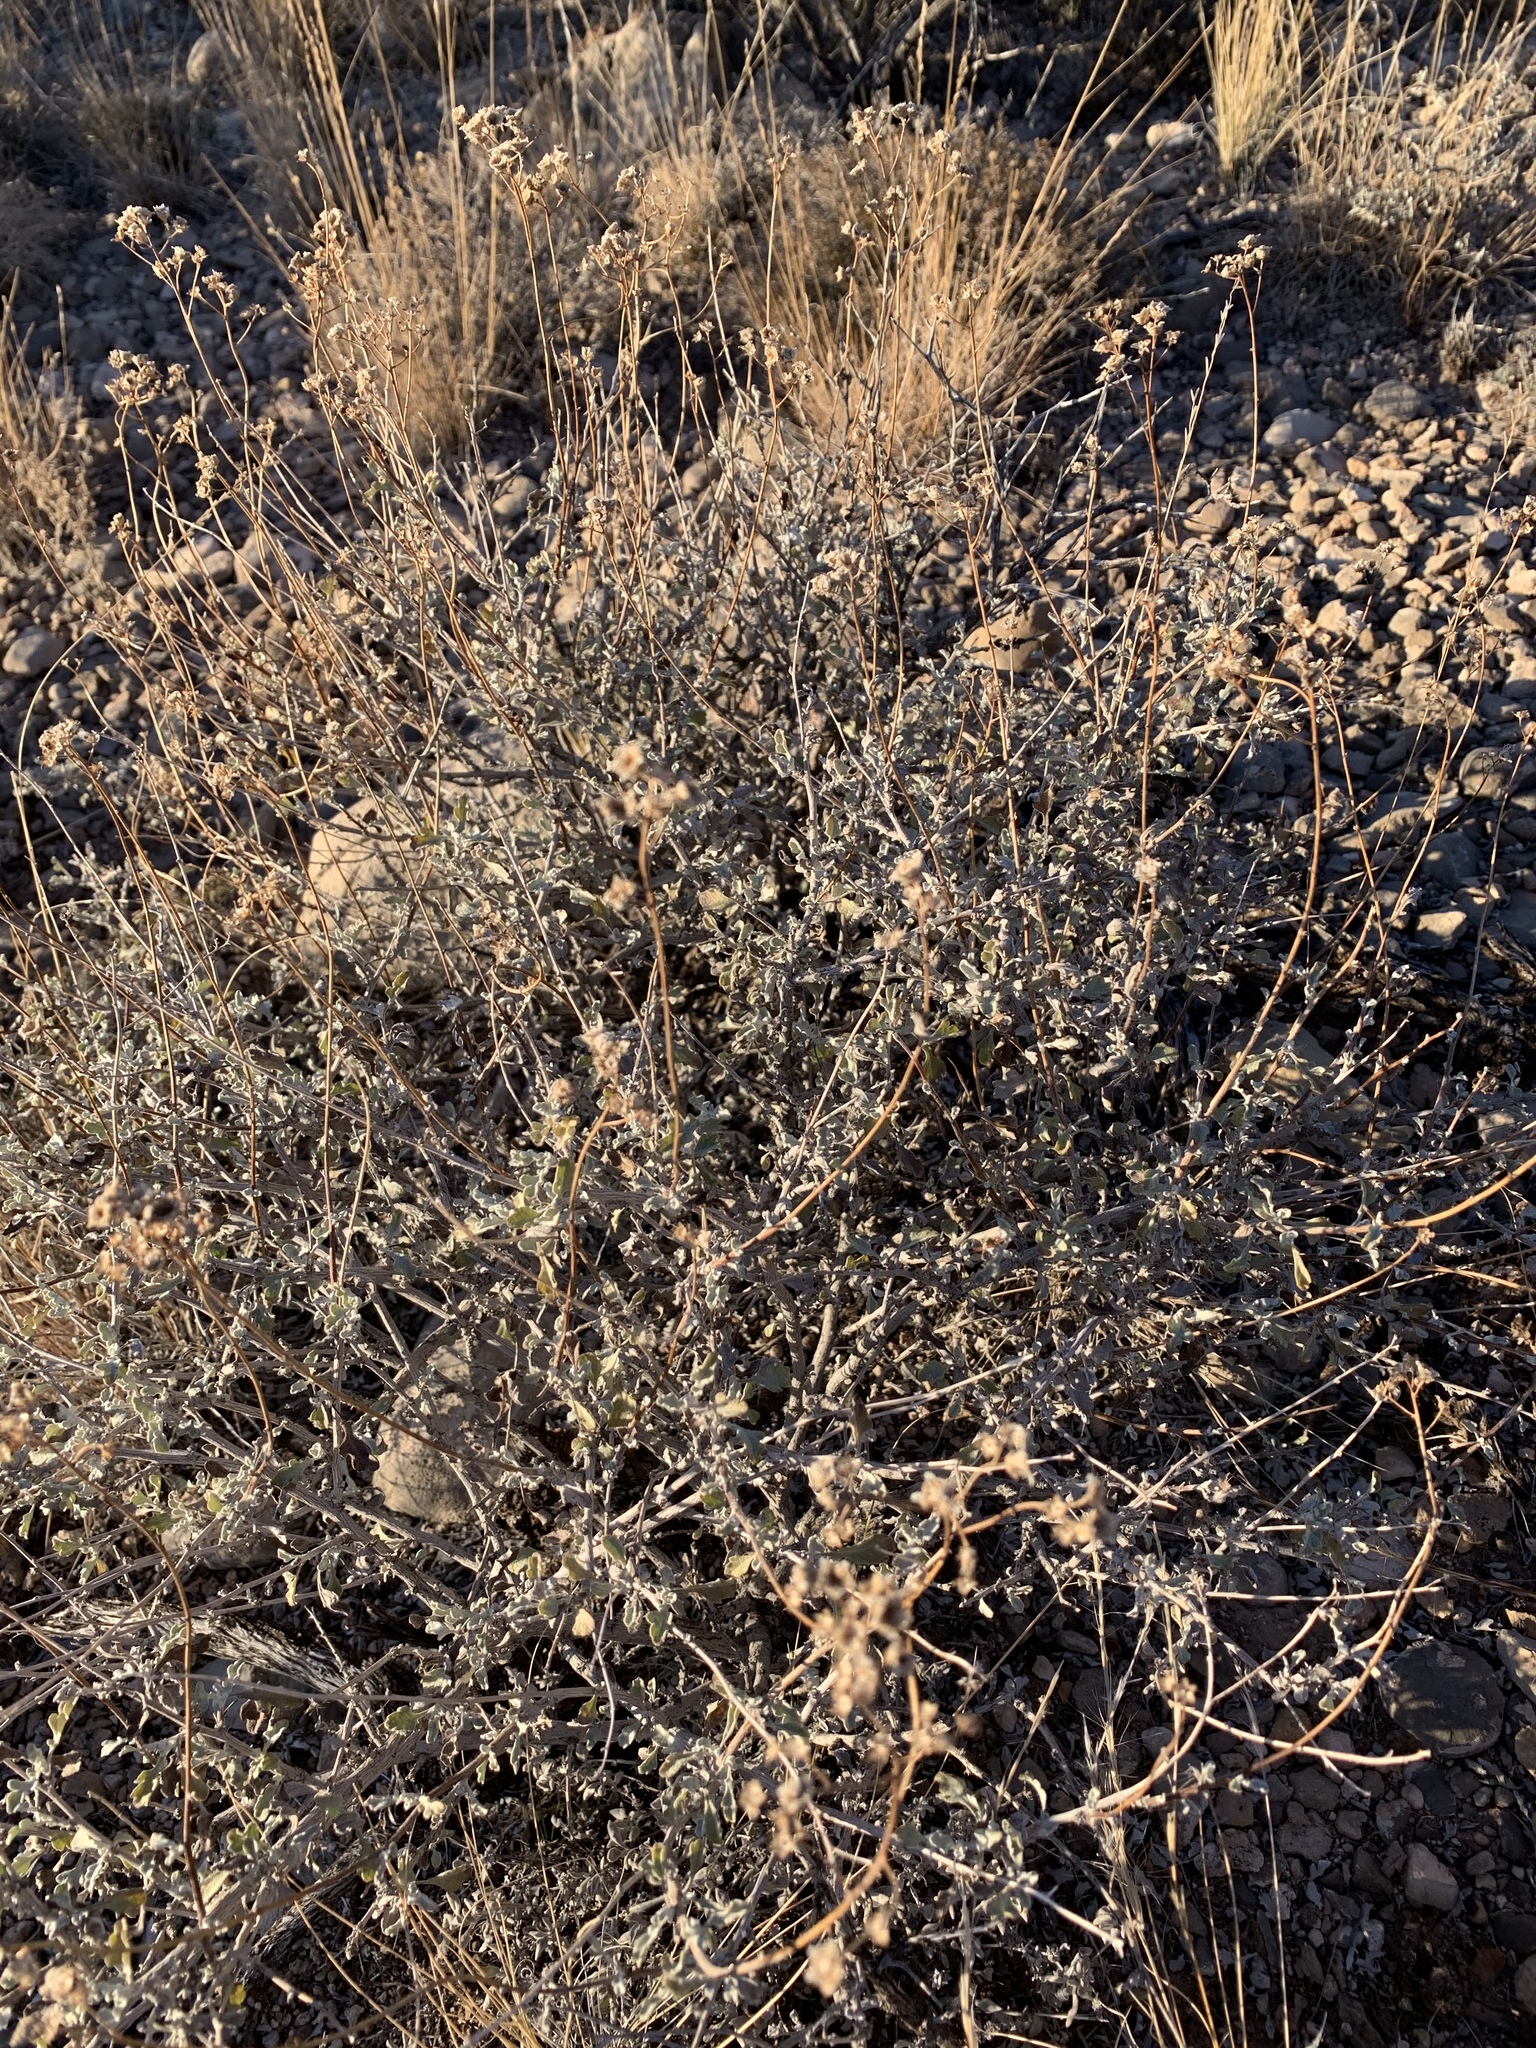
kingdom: Plantae
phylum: Tracheophyta
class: Magnoliopsida
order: Asterales
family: Asteraceae
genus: Parthenium
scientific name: Parthenium incanum
